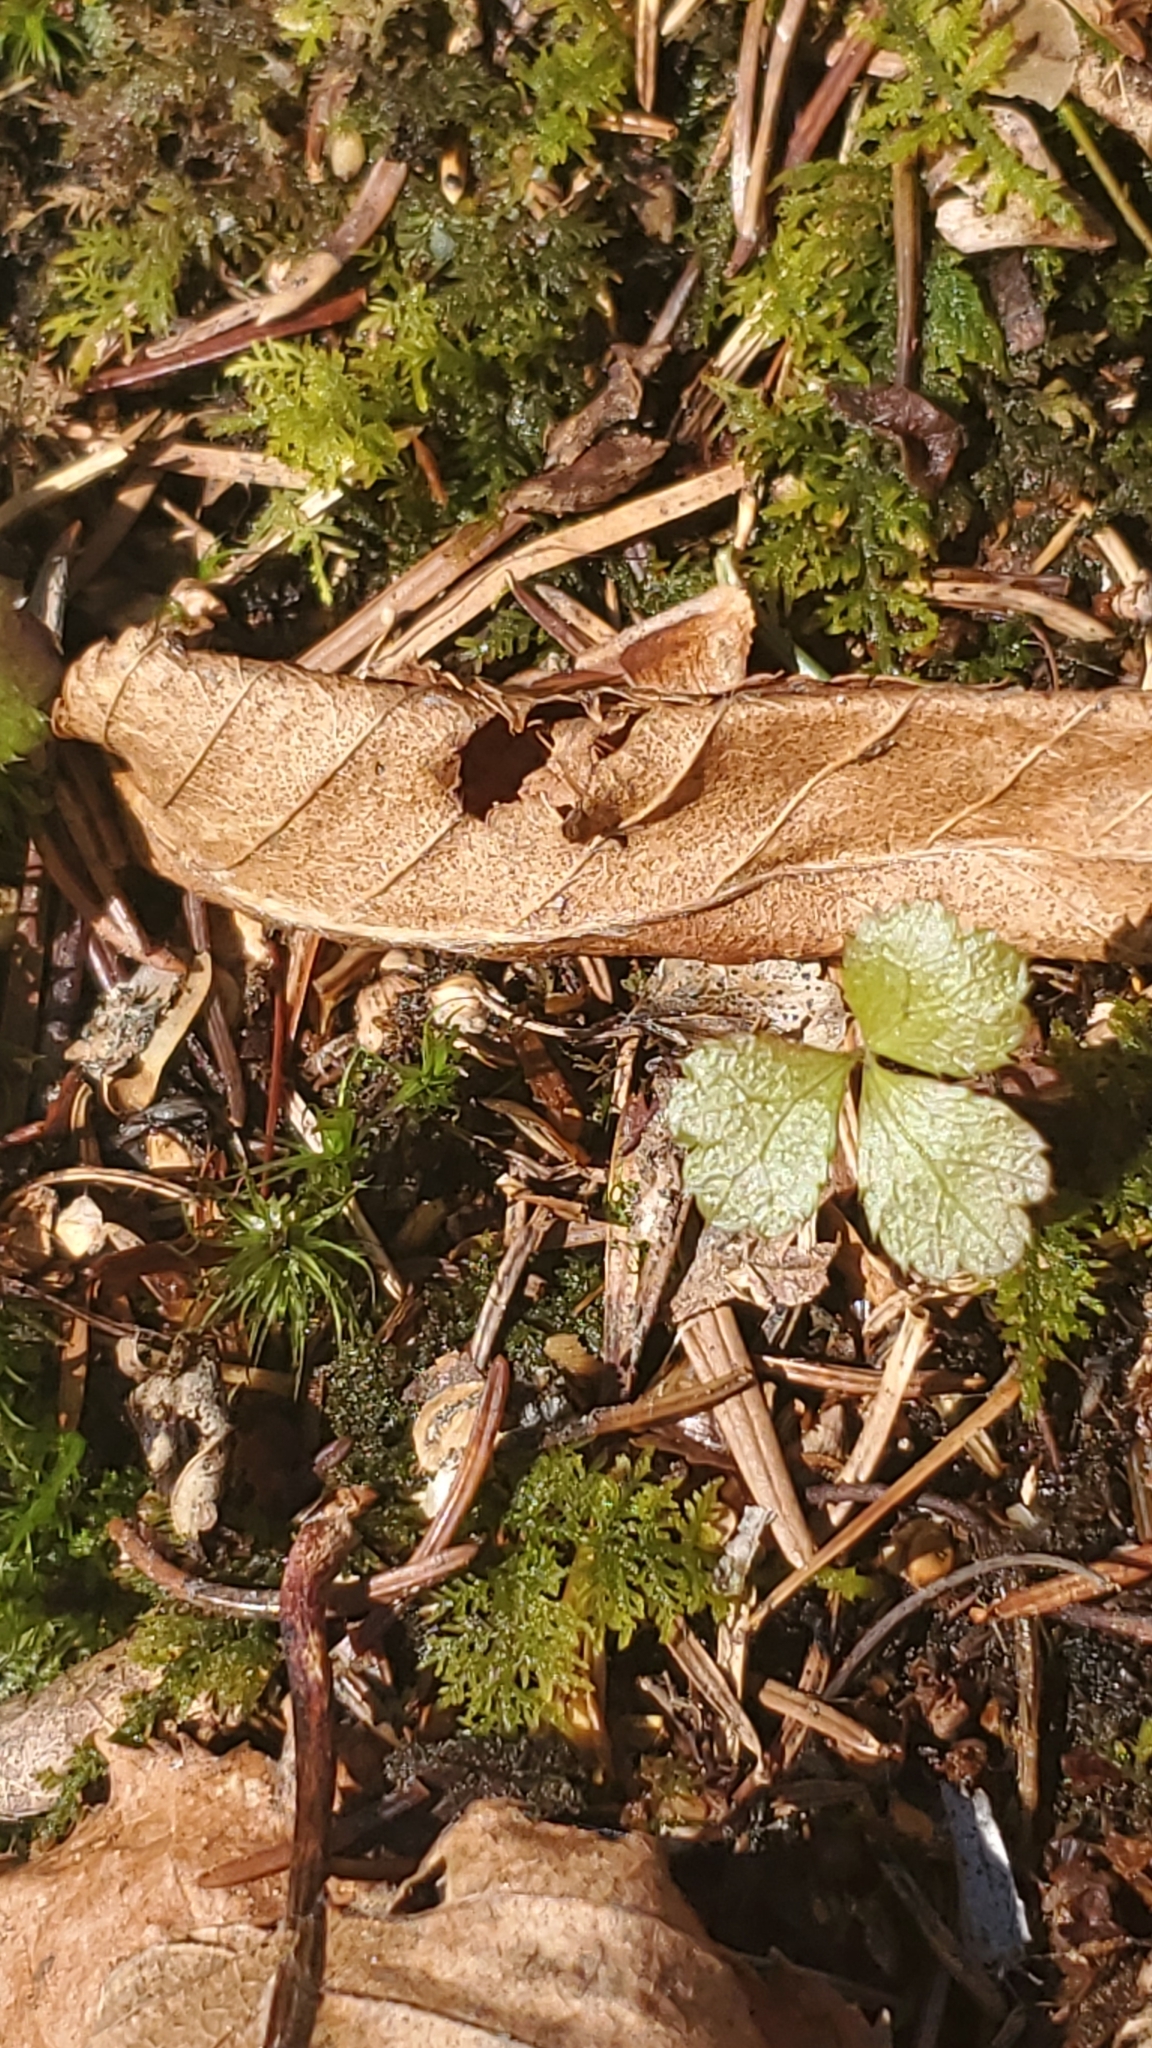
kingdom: Plantae
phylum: Tracheophyta
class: Magnoliopsida
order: Ranunculales
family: Ranunculaceae
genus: Coptis
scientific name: Coptis trifolia
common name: Canker-root
